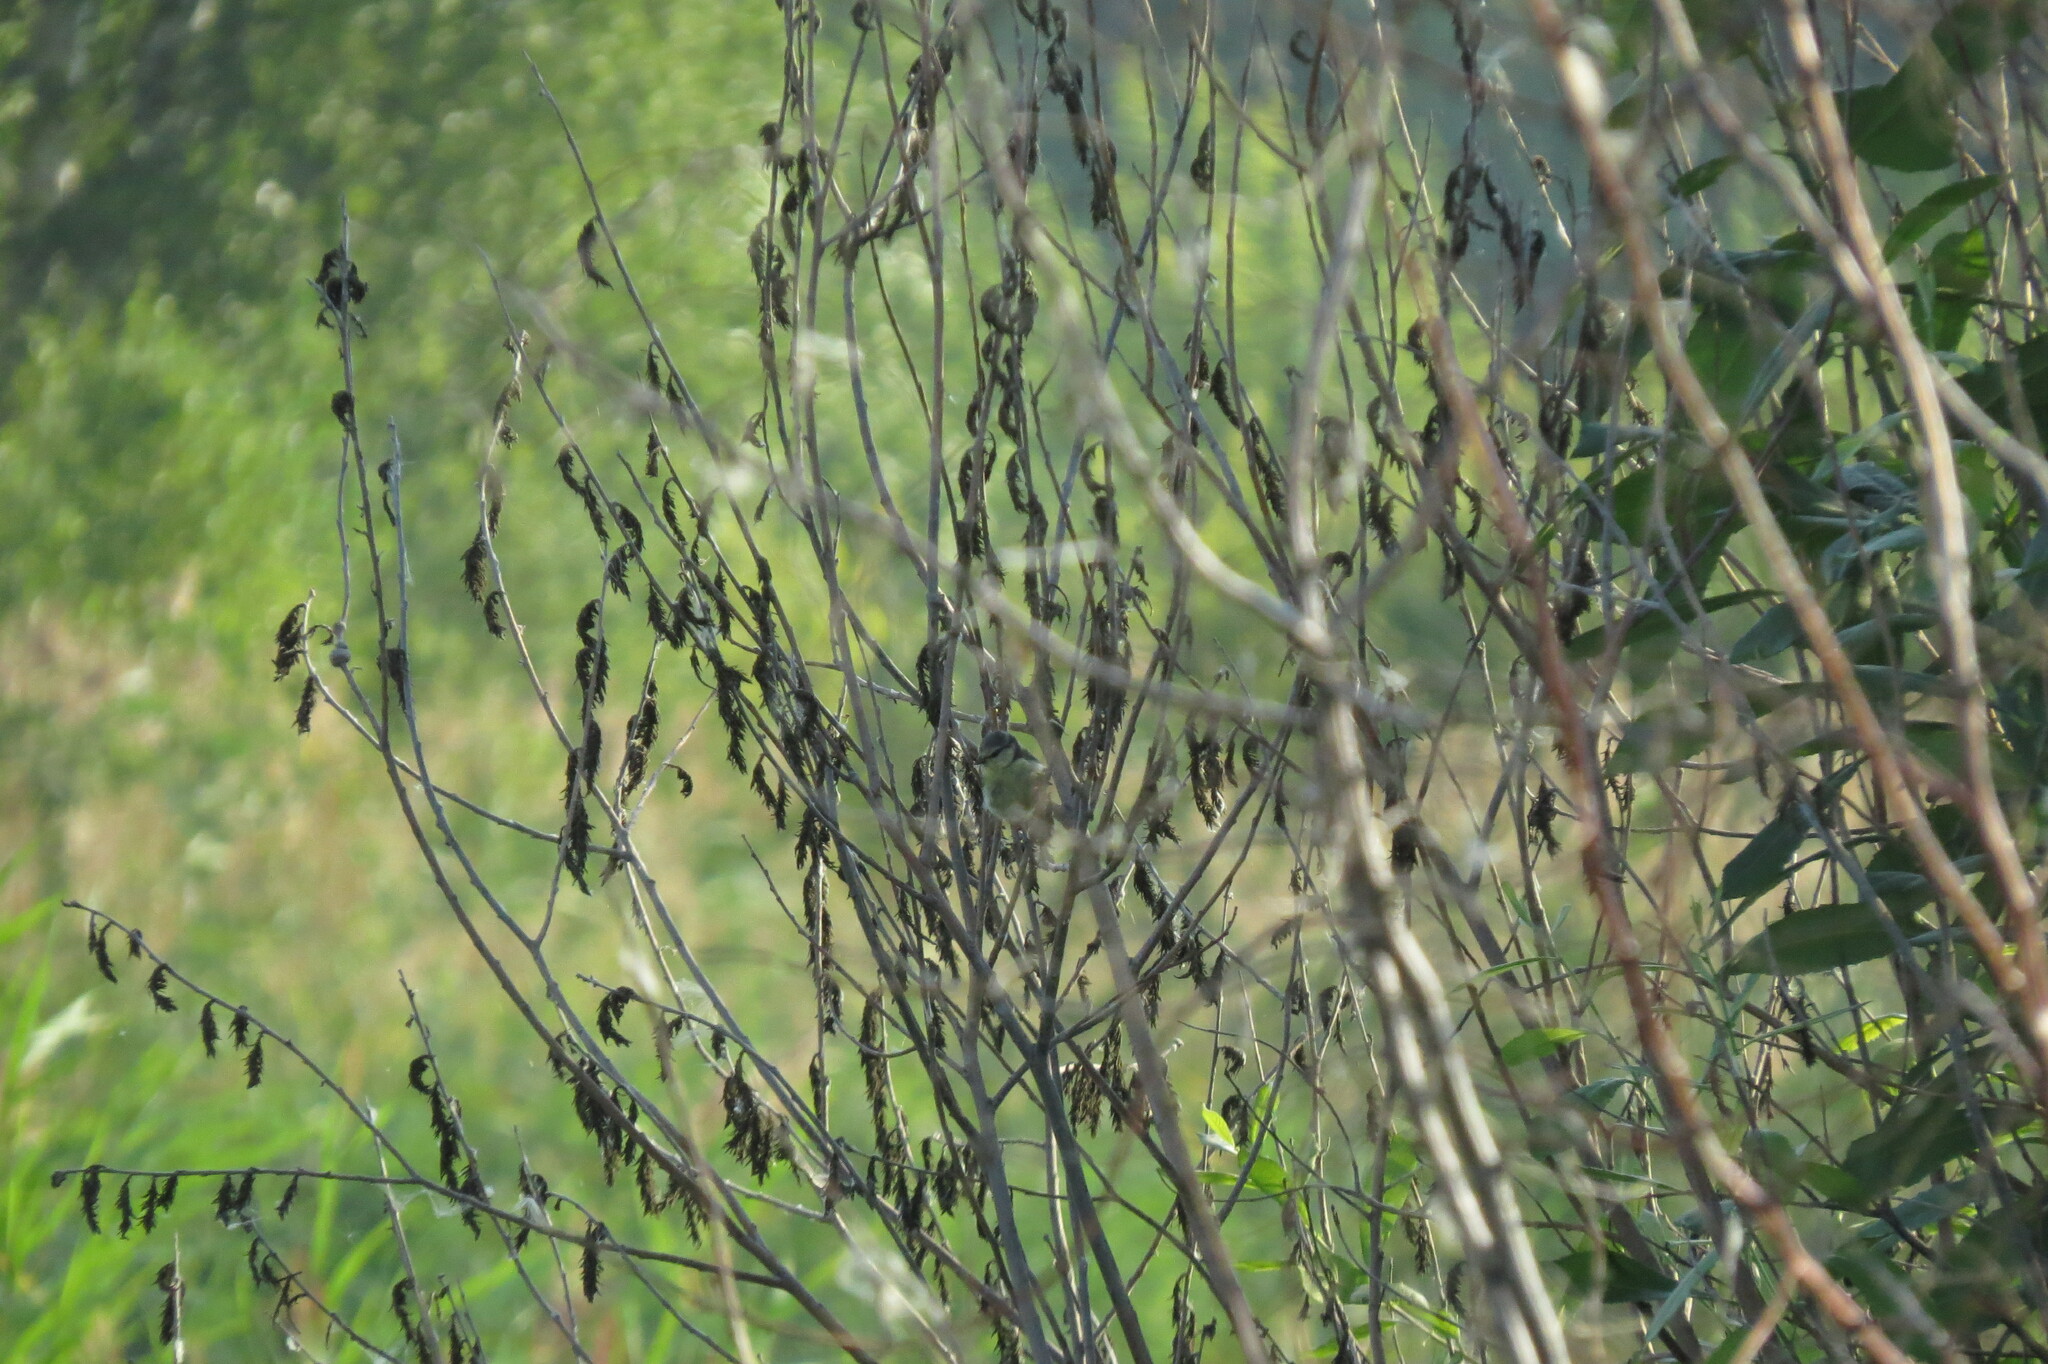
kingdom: Animalia
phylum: Chordata
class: Aves
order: Passeriformes
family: Paridae
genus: Cyanistes
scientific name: Cyanistes caeruleus
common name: Eurasian blue tit
